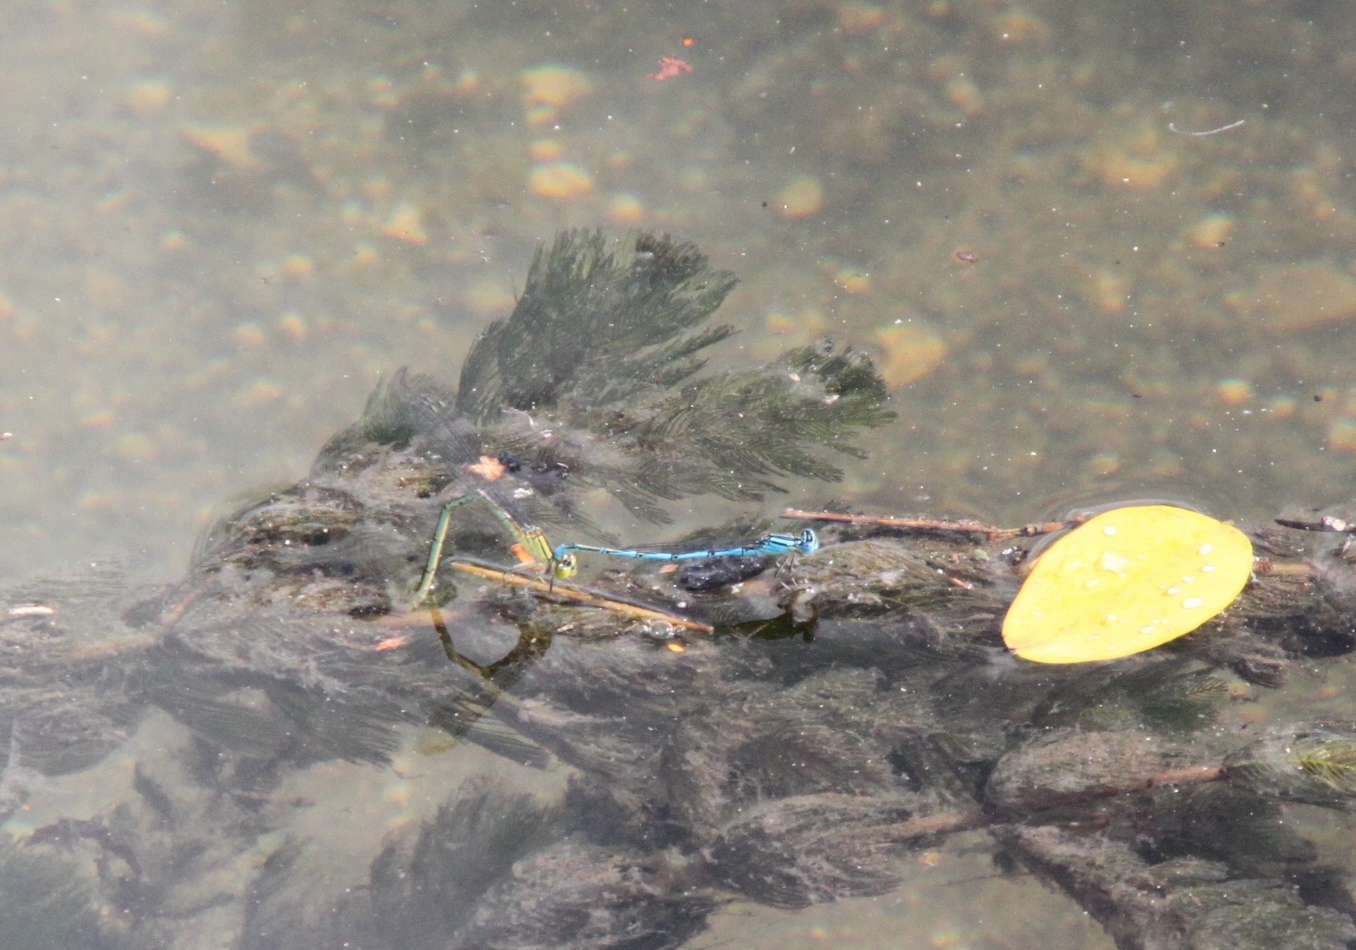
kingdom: Animalia
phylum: Arthropoda
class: Insecta
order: Odonata
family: Coenagrionidae
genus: Erythromma
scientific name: Erythromma lindenii
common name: Blue-eye
